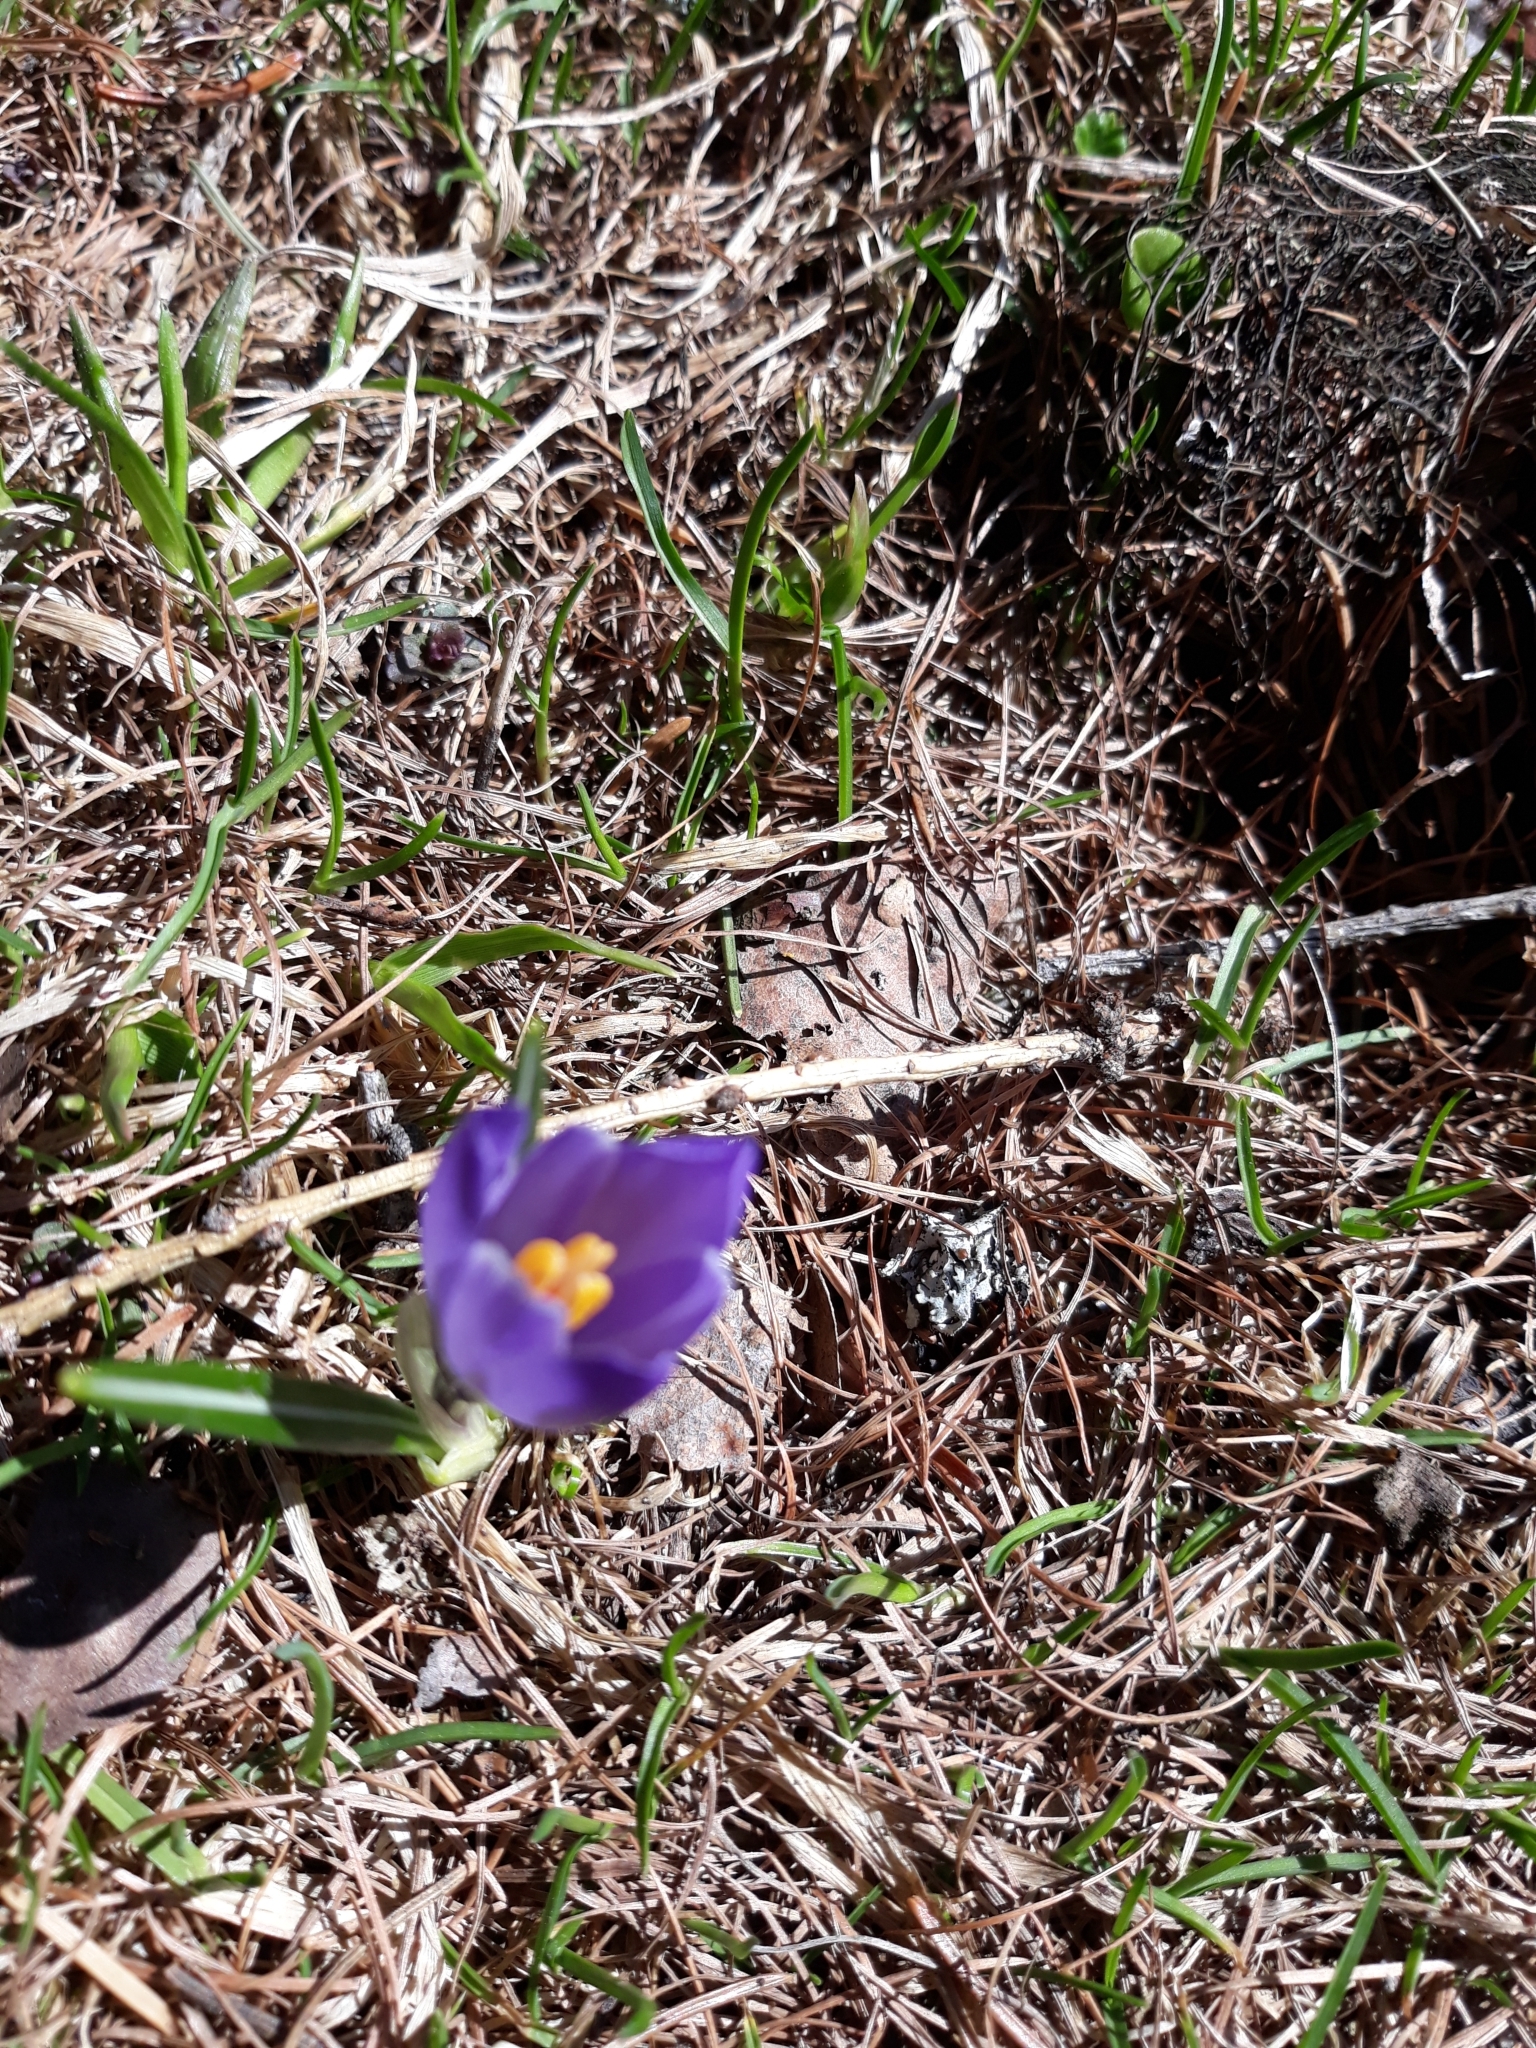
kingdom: Plantae
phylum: Tracheophyta
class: Liliopsida
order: Asparagales
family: Iridaceae
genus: Crocus
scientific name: Crocus vernus
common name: Spring crocus
